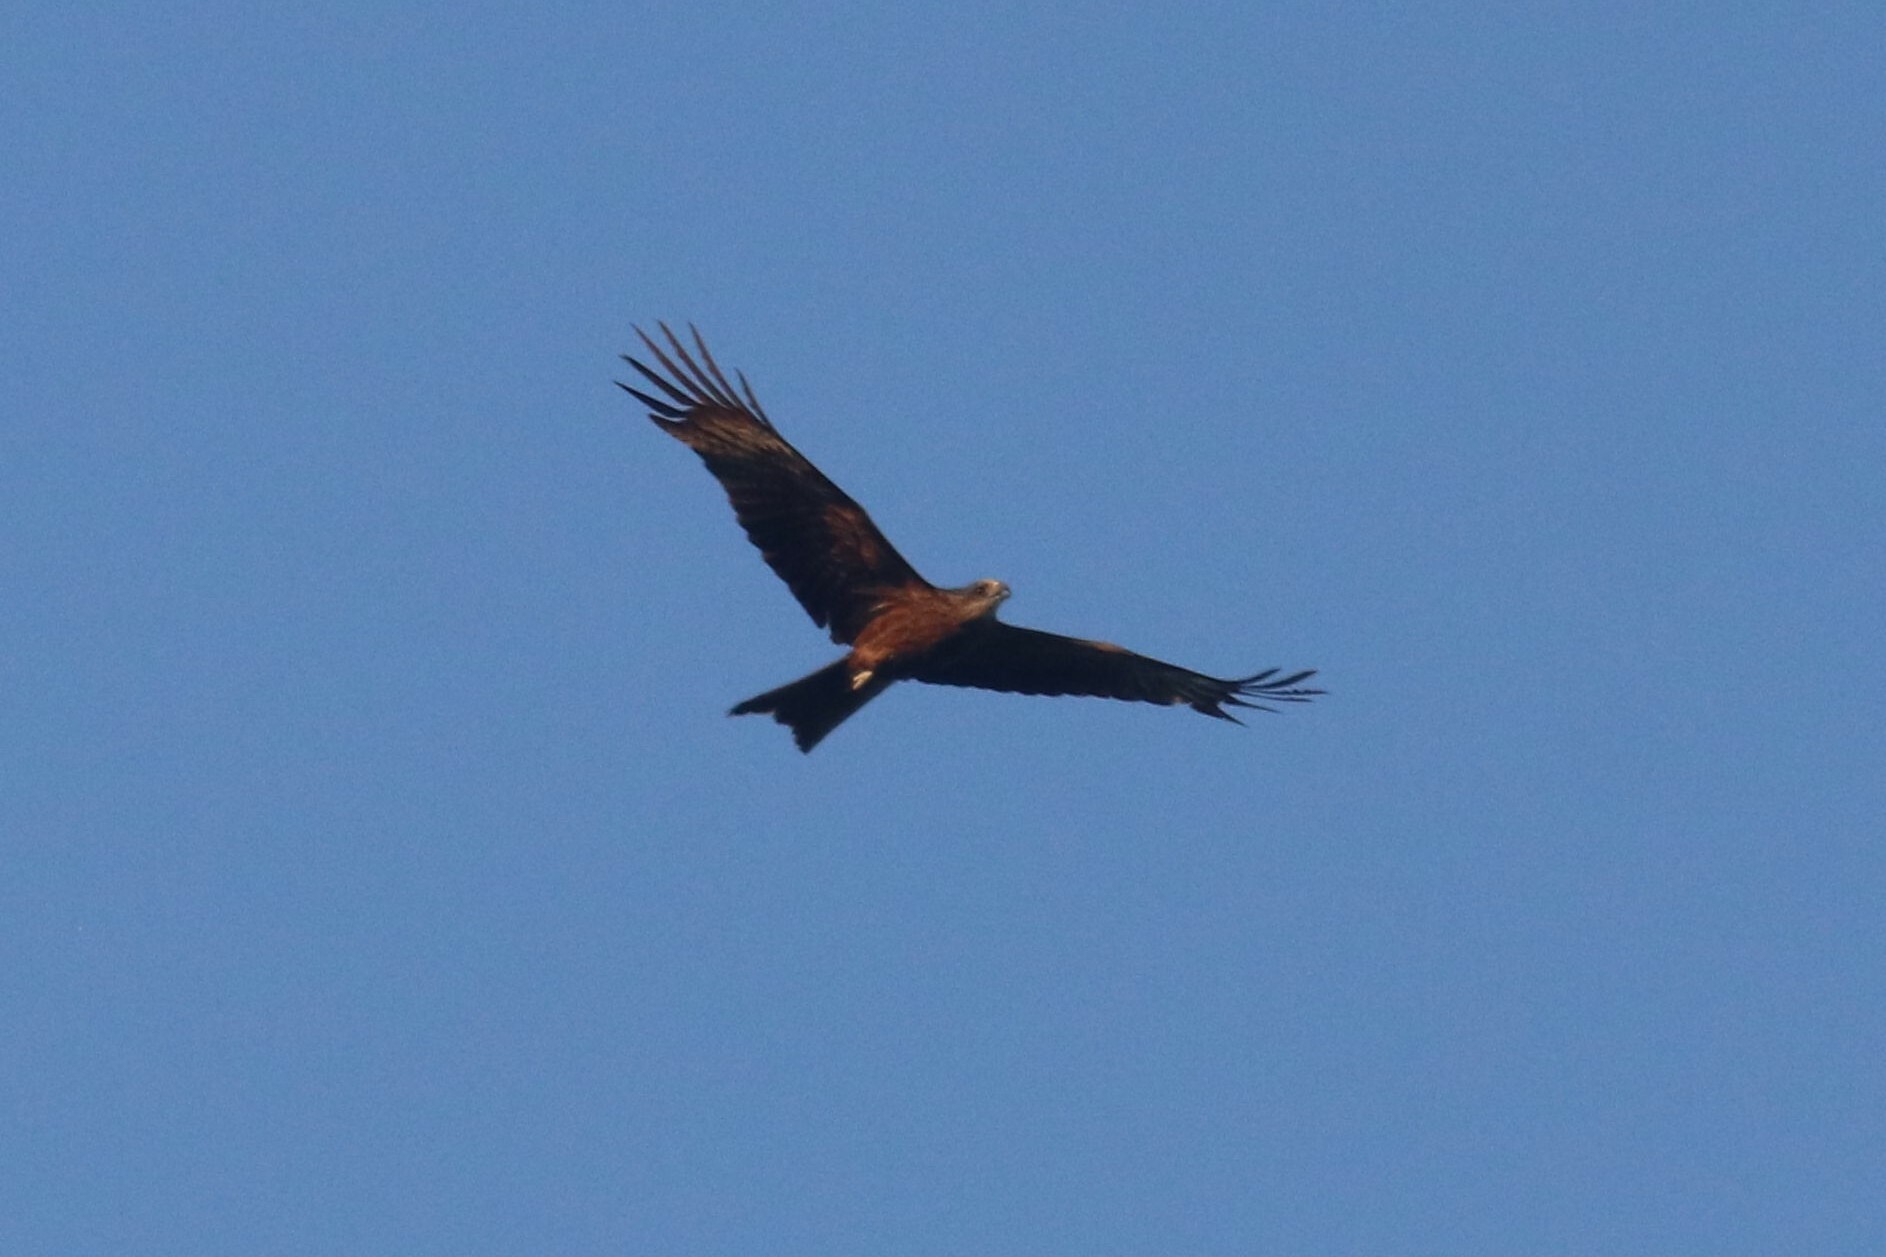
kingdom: Animalia
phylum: Chordata
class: Aves
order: Accipitriformes
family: Accipitridae
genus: Milvus
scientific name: Milvus migrans
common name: Black kite
